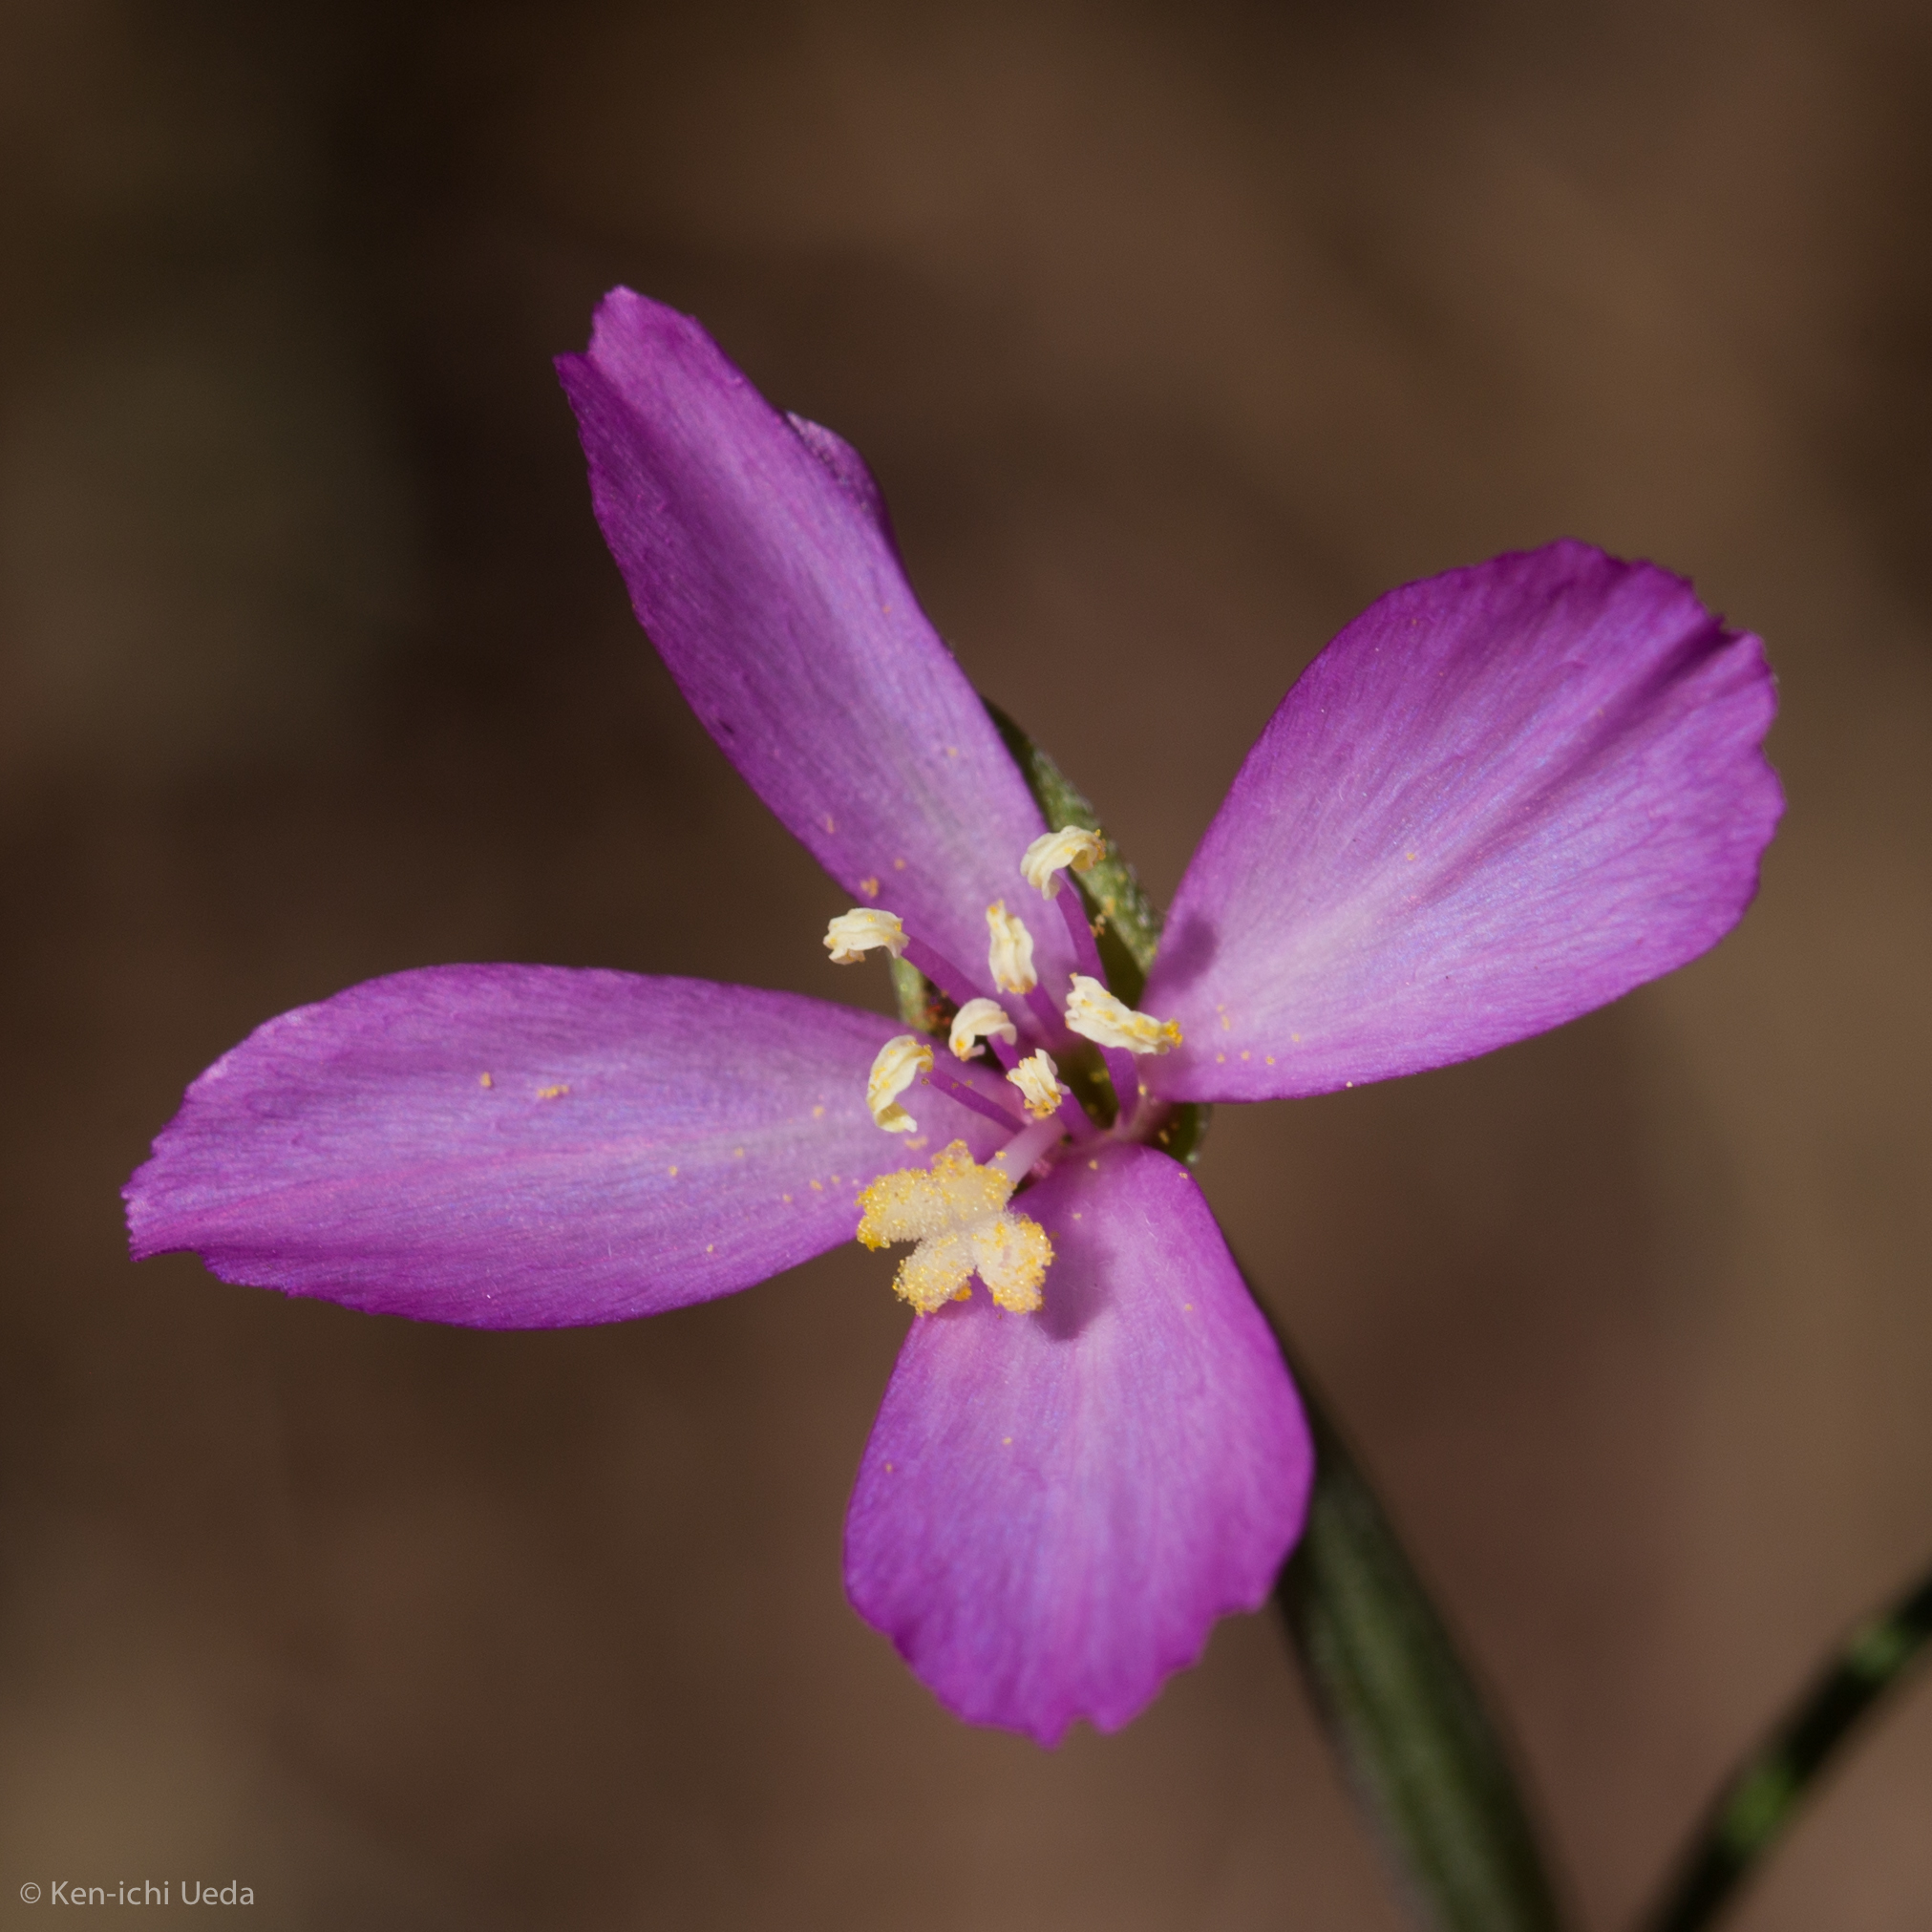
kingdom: Plantae
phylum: Tracheophyta
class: Magnoliopsida
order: Myrtales
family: Onagraceae
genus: Clarkia
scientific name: Clarkia gracilis
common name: Graceful clarkia
